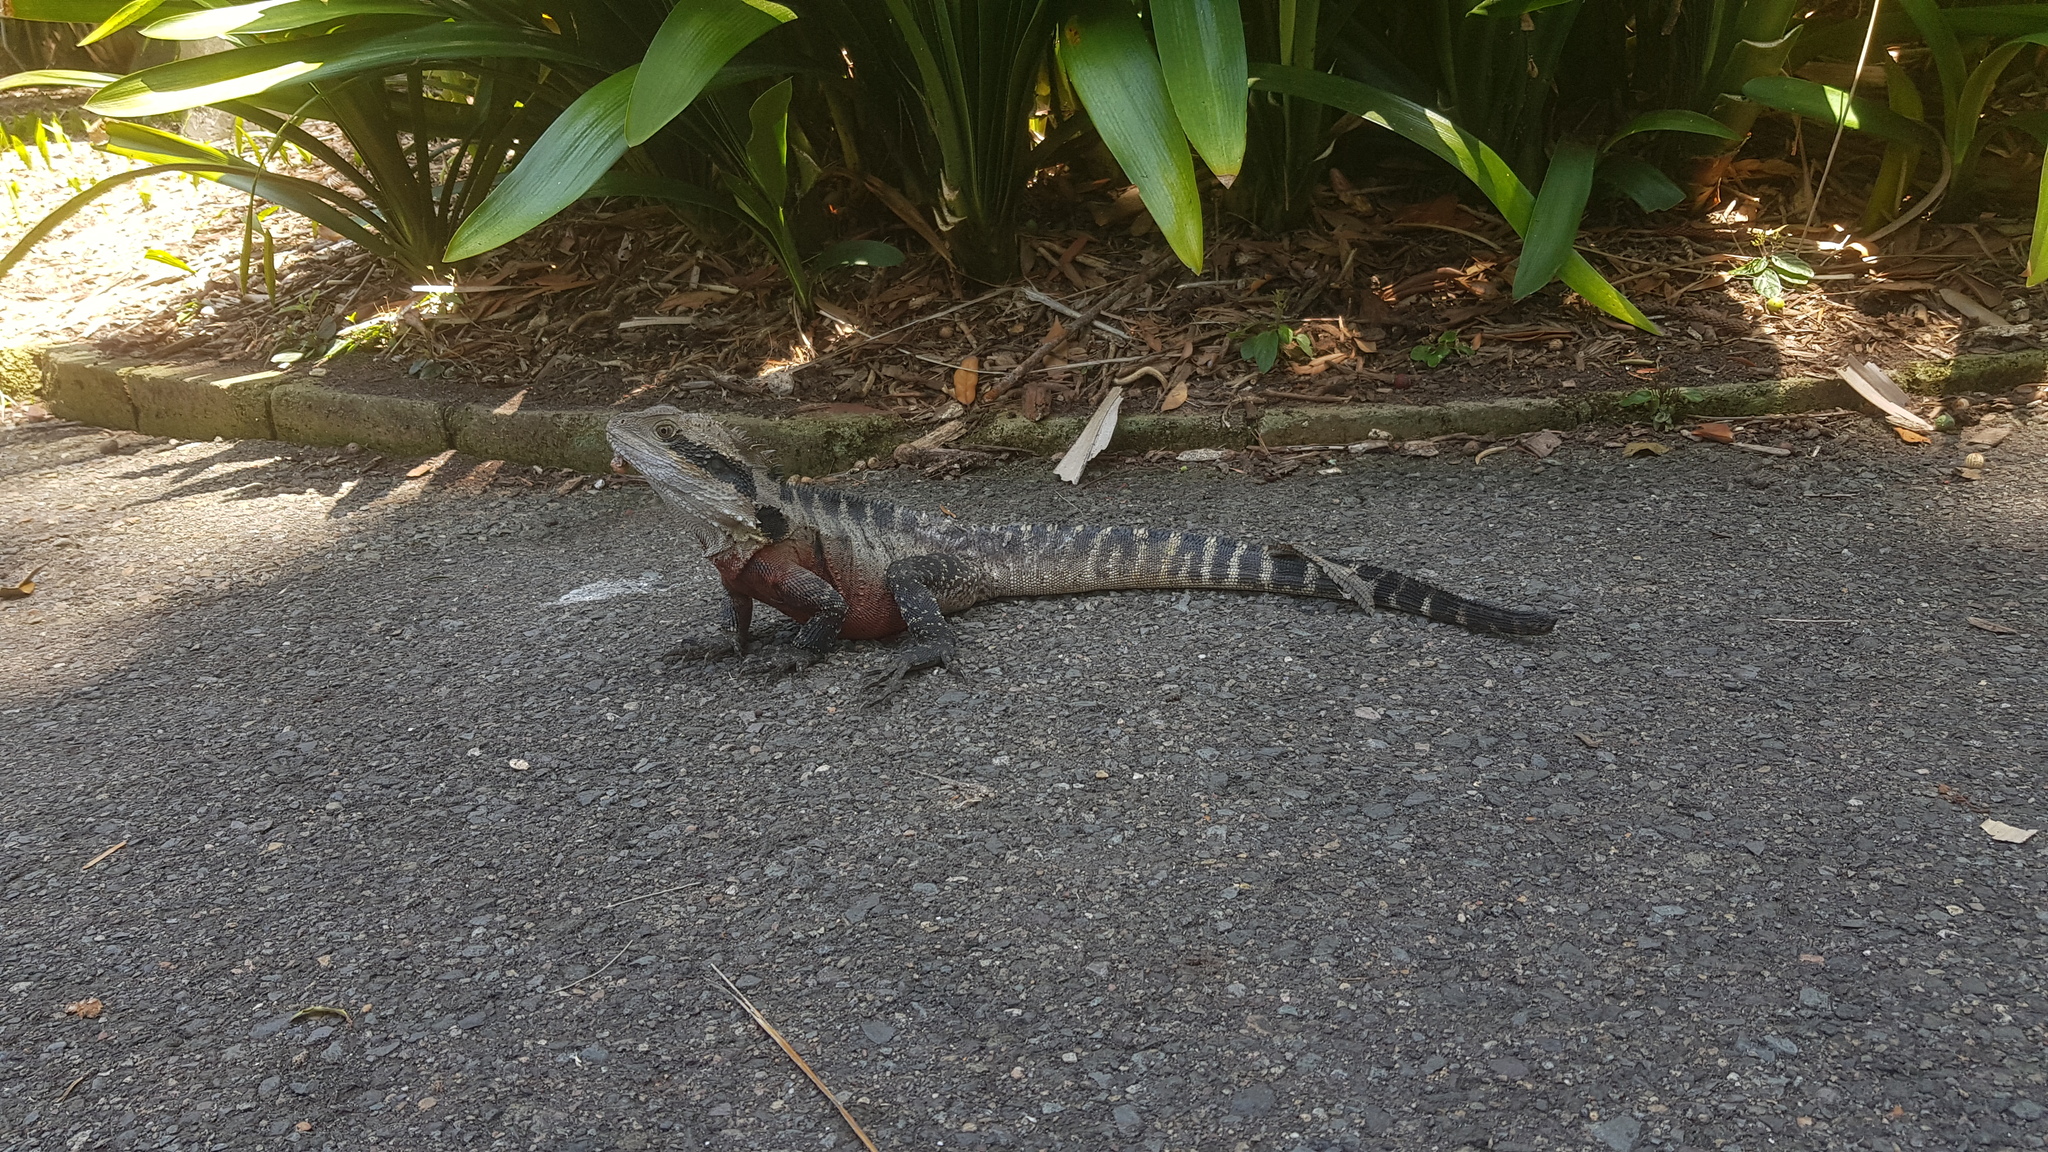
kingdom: Animalia
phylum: Chordata
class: Squamata
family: Agamidae
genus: Intellagama
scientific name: Intellagama lesueurii
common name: Eastern water dragon
